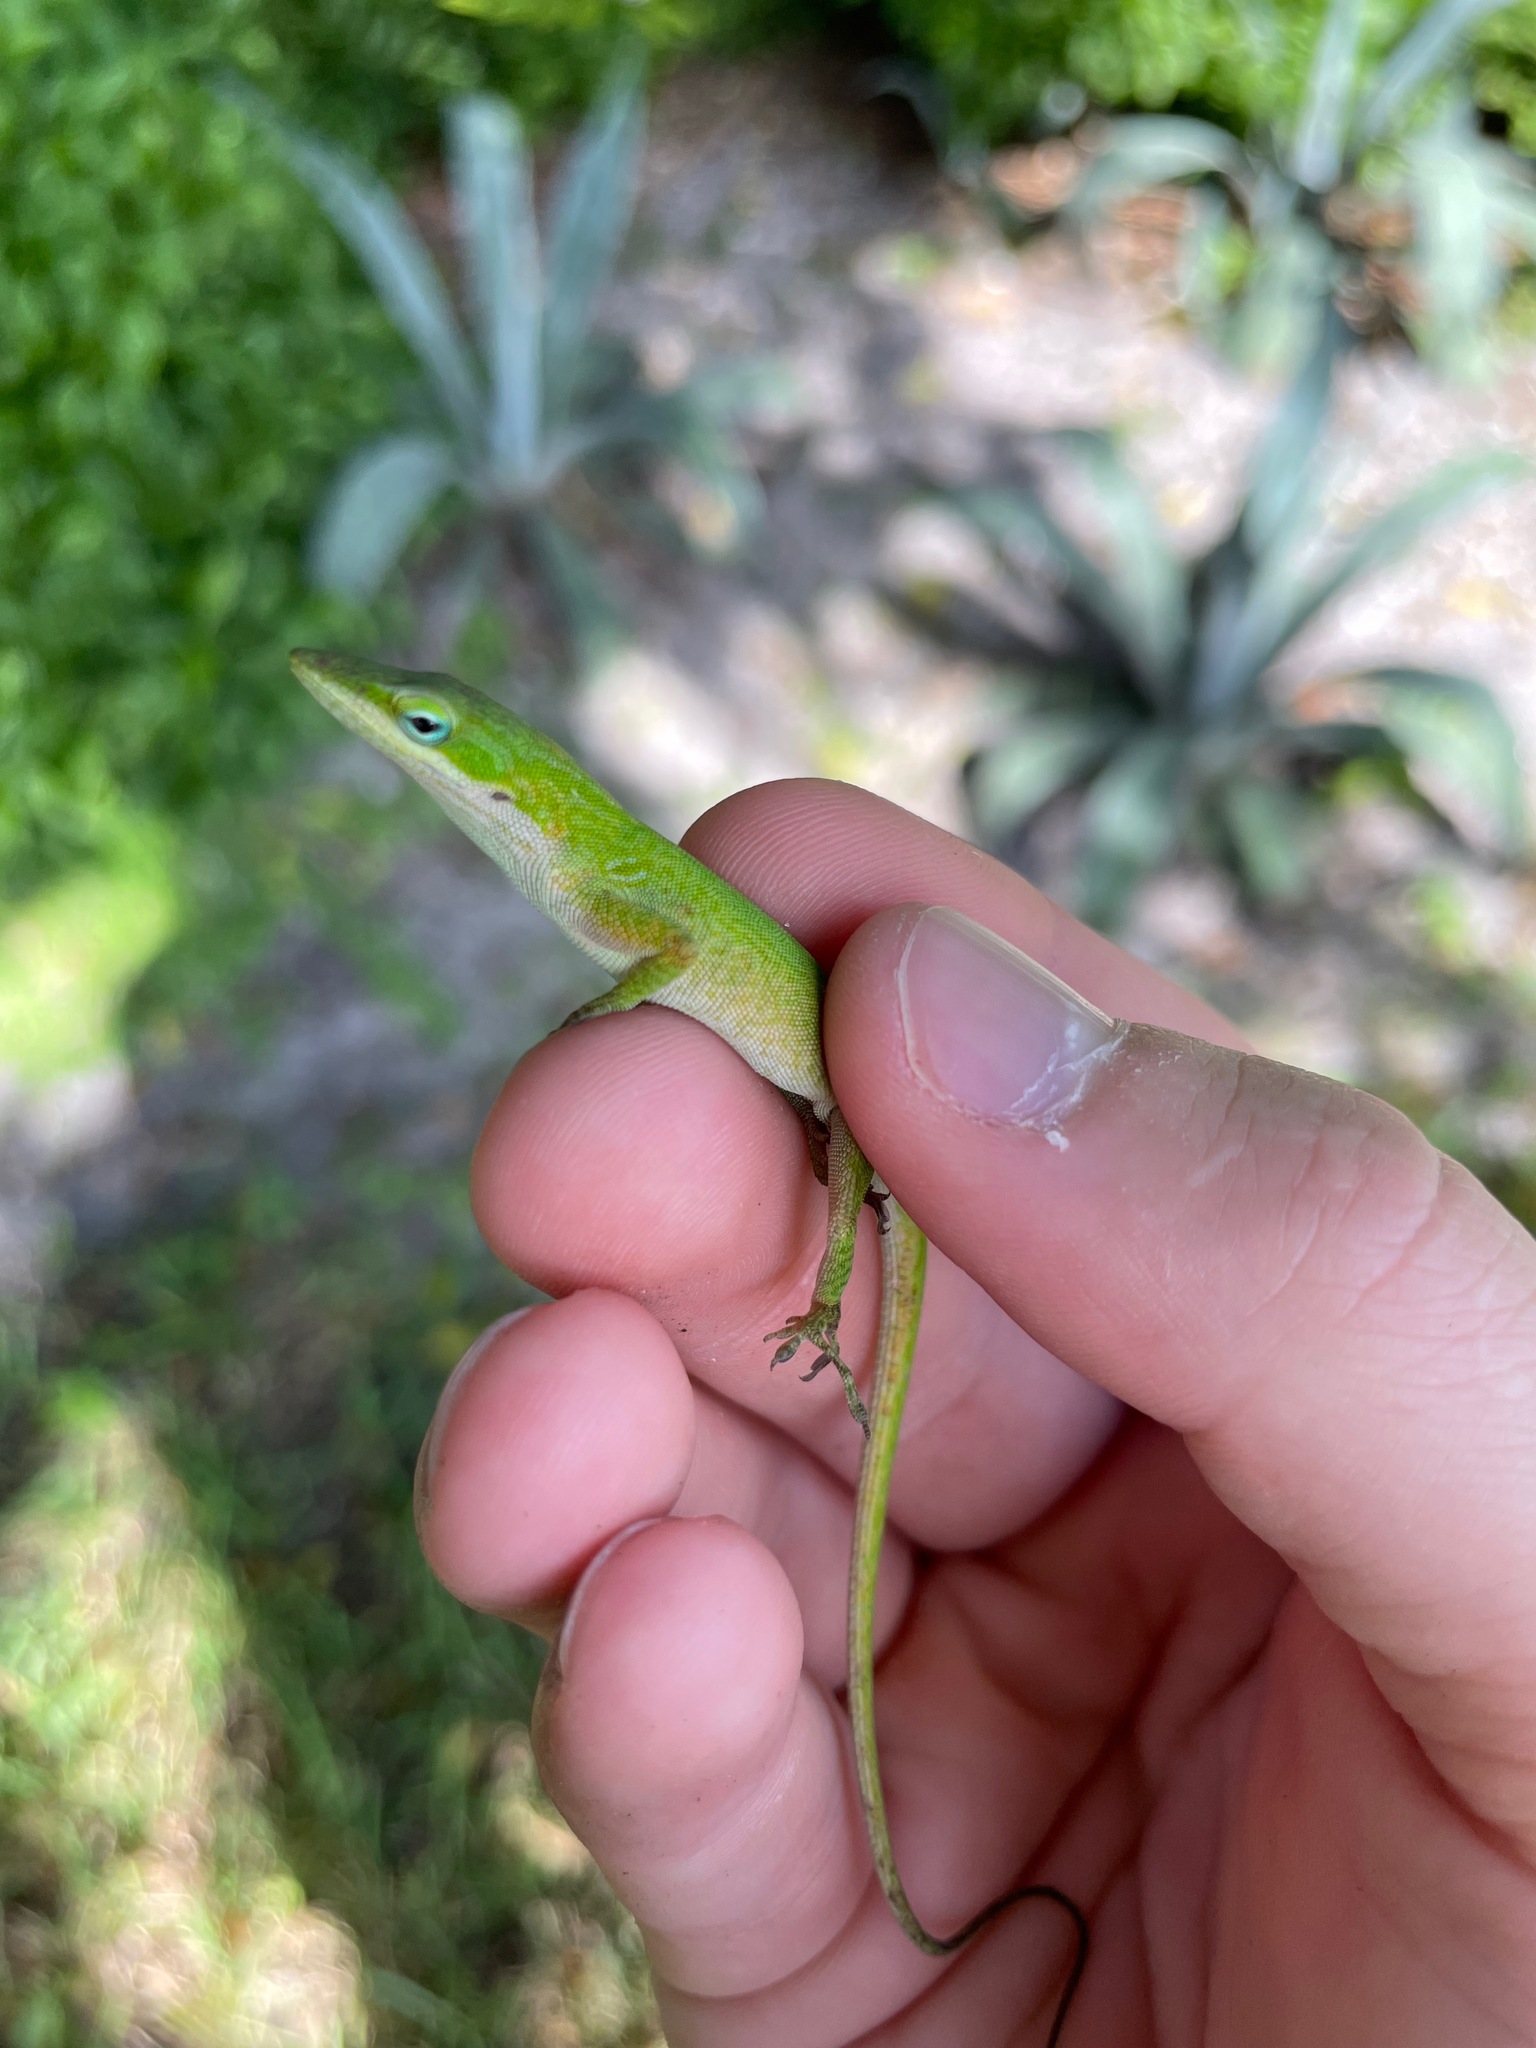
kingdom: Animalia
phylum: Chordata
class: Squamata
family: Dactyloidae
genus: Anolis
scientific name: Anolis carolinensis
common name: Green anole
